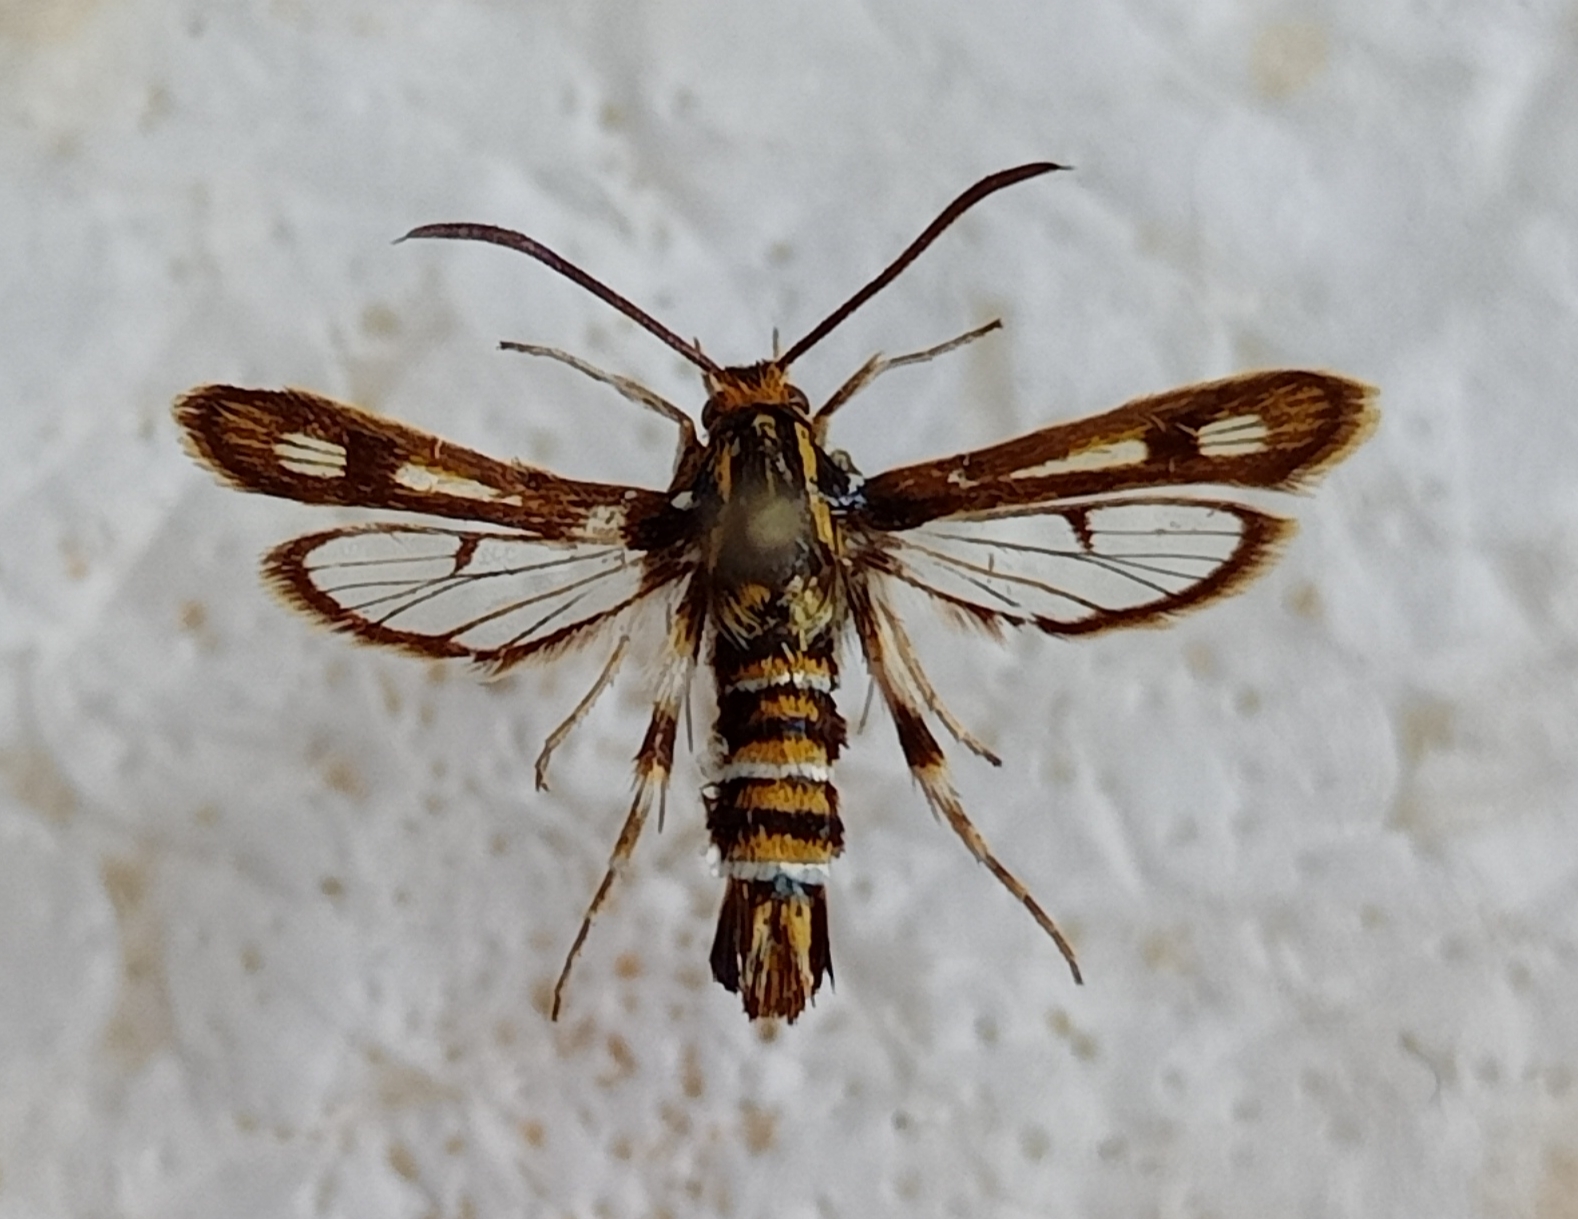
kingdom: Animalia
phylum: Arthropoda
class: Insecta
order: Lepidoptera
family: Sesiidae
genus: Chamaesphecia
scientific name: Chamaesphecia dumonti
